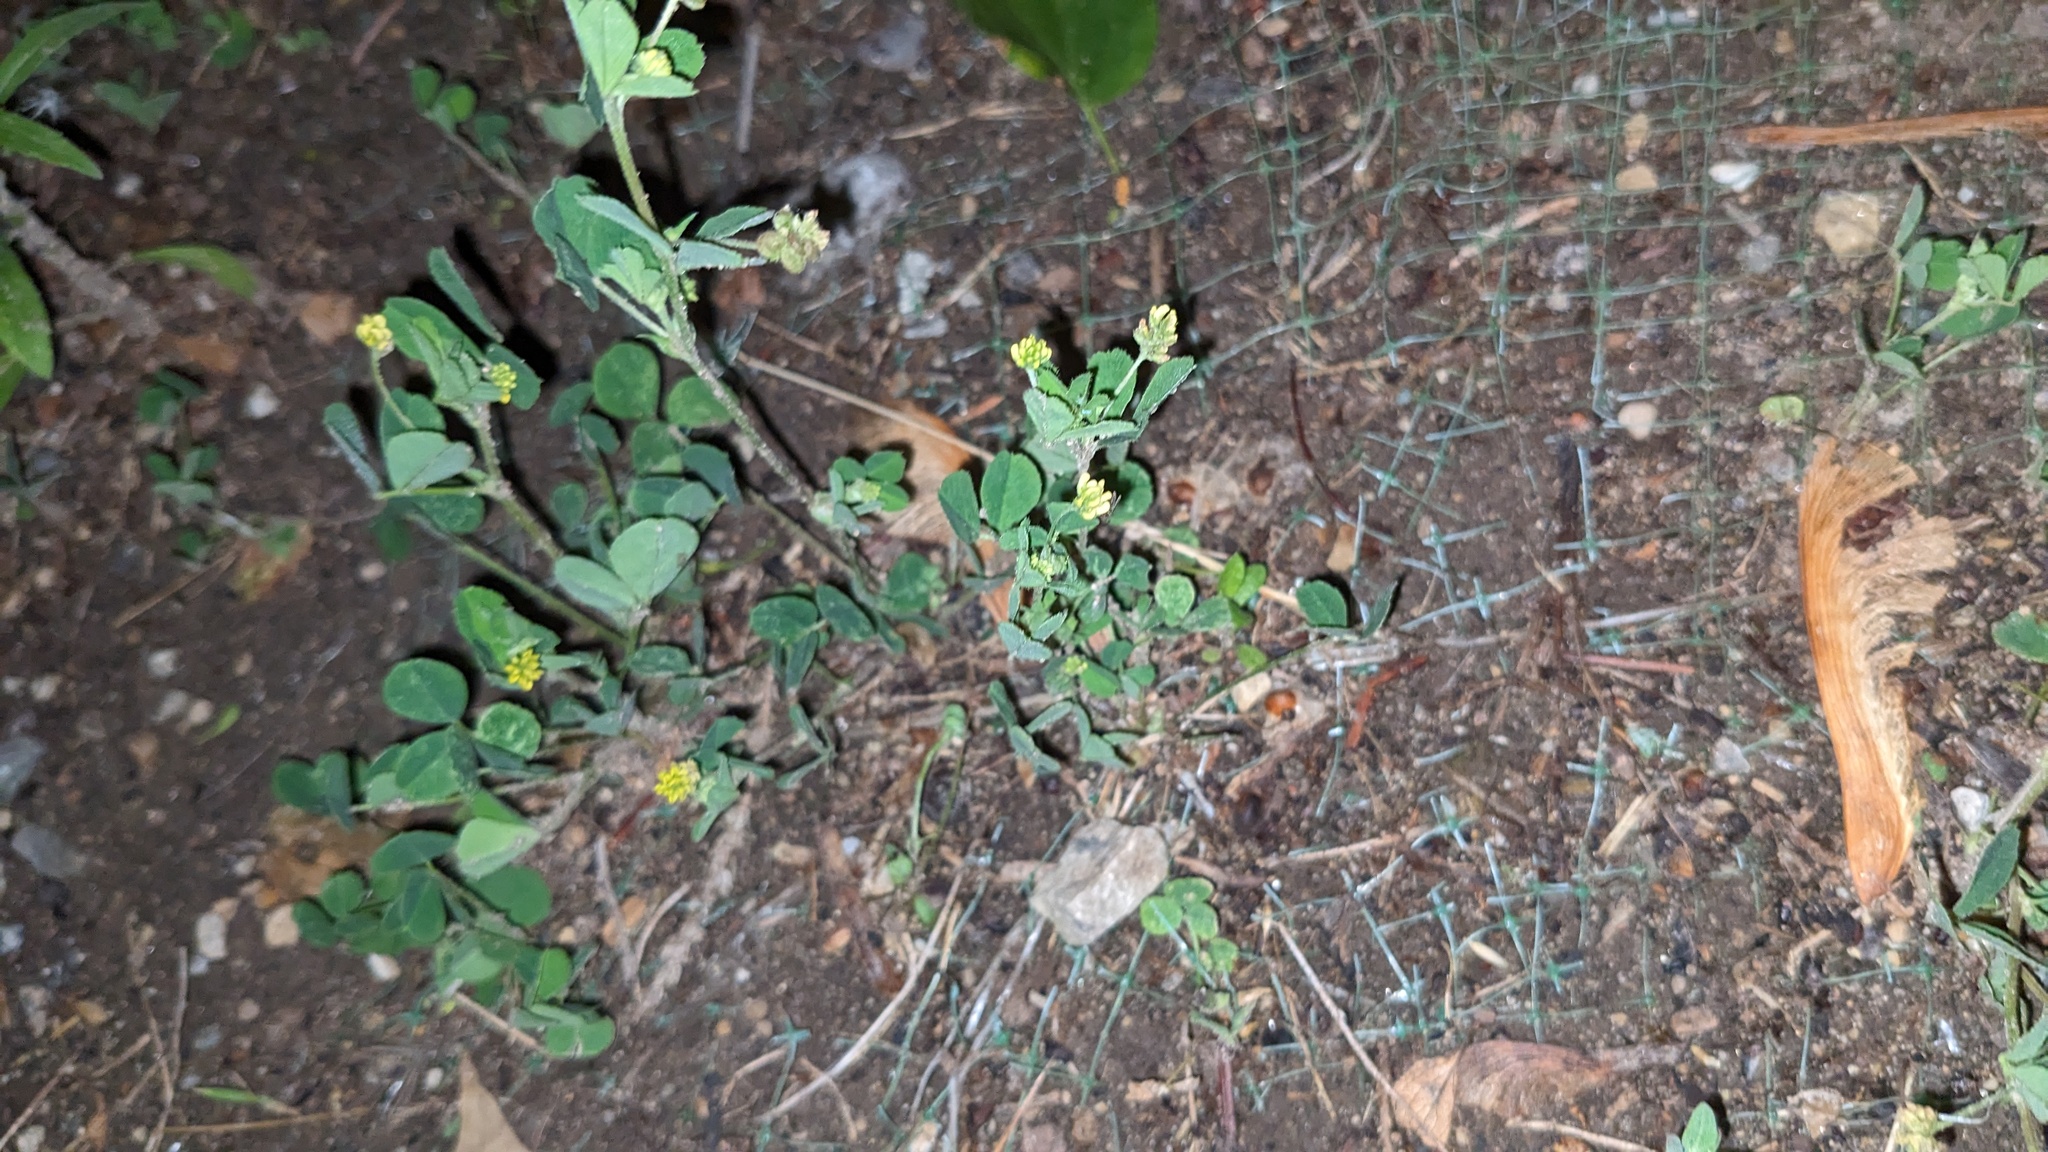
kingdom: Plantae
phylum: Tracheophyta
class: Magnoliopsida
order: Fabales
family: Fabaceae
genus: Medicago
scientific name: Medicago lupulina
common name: Black medick
